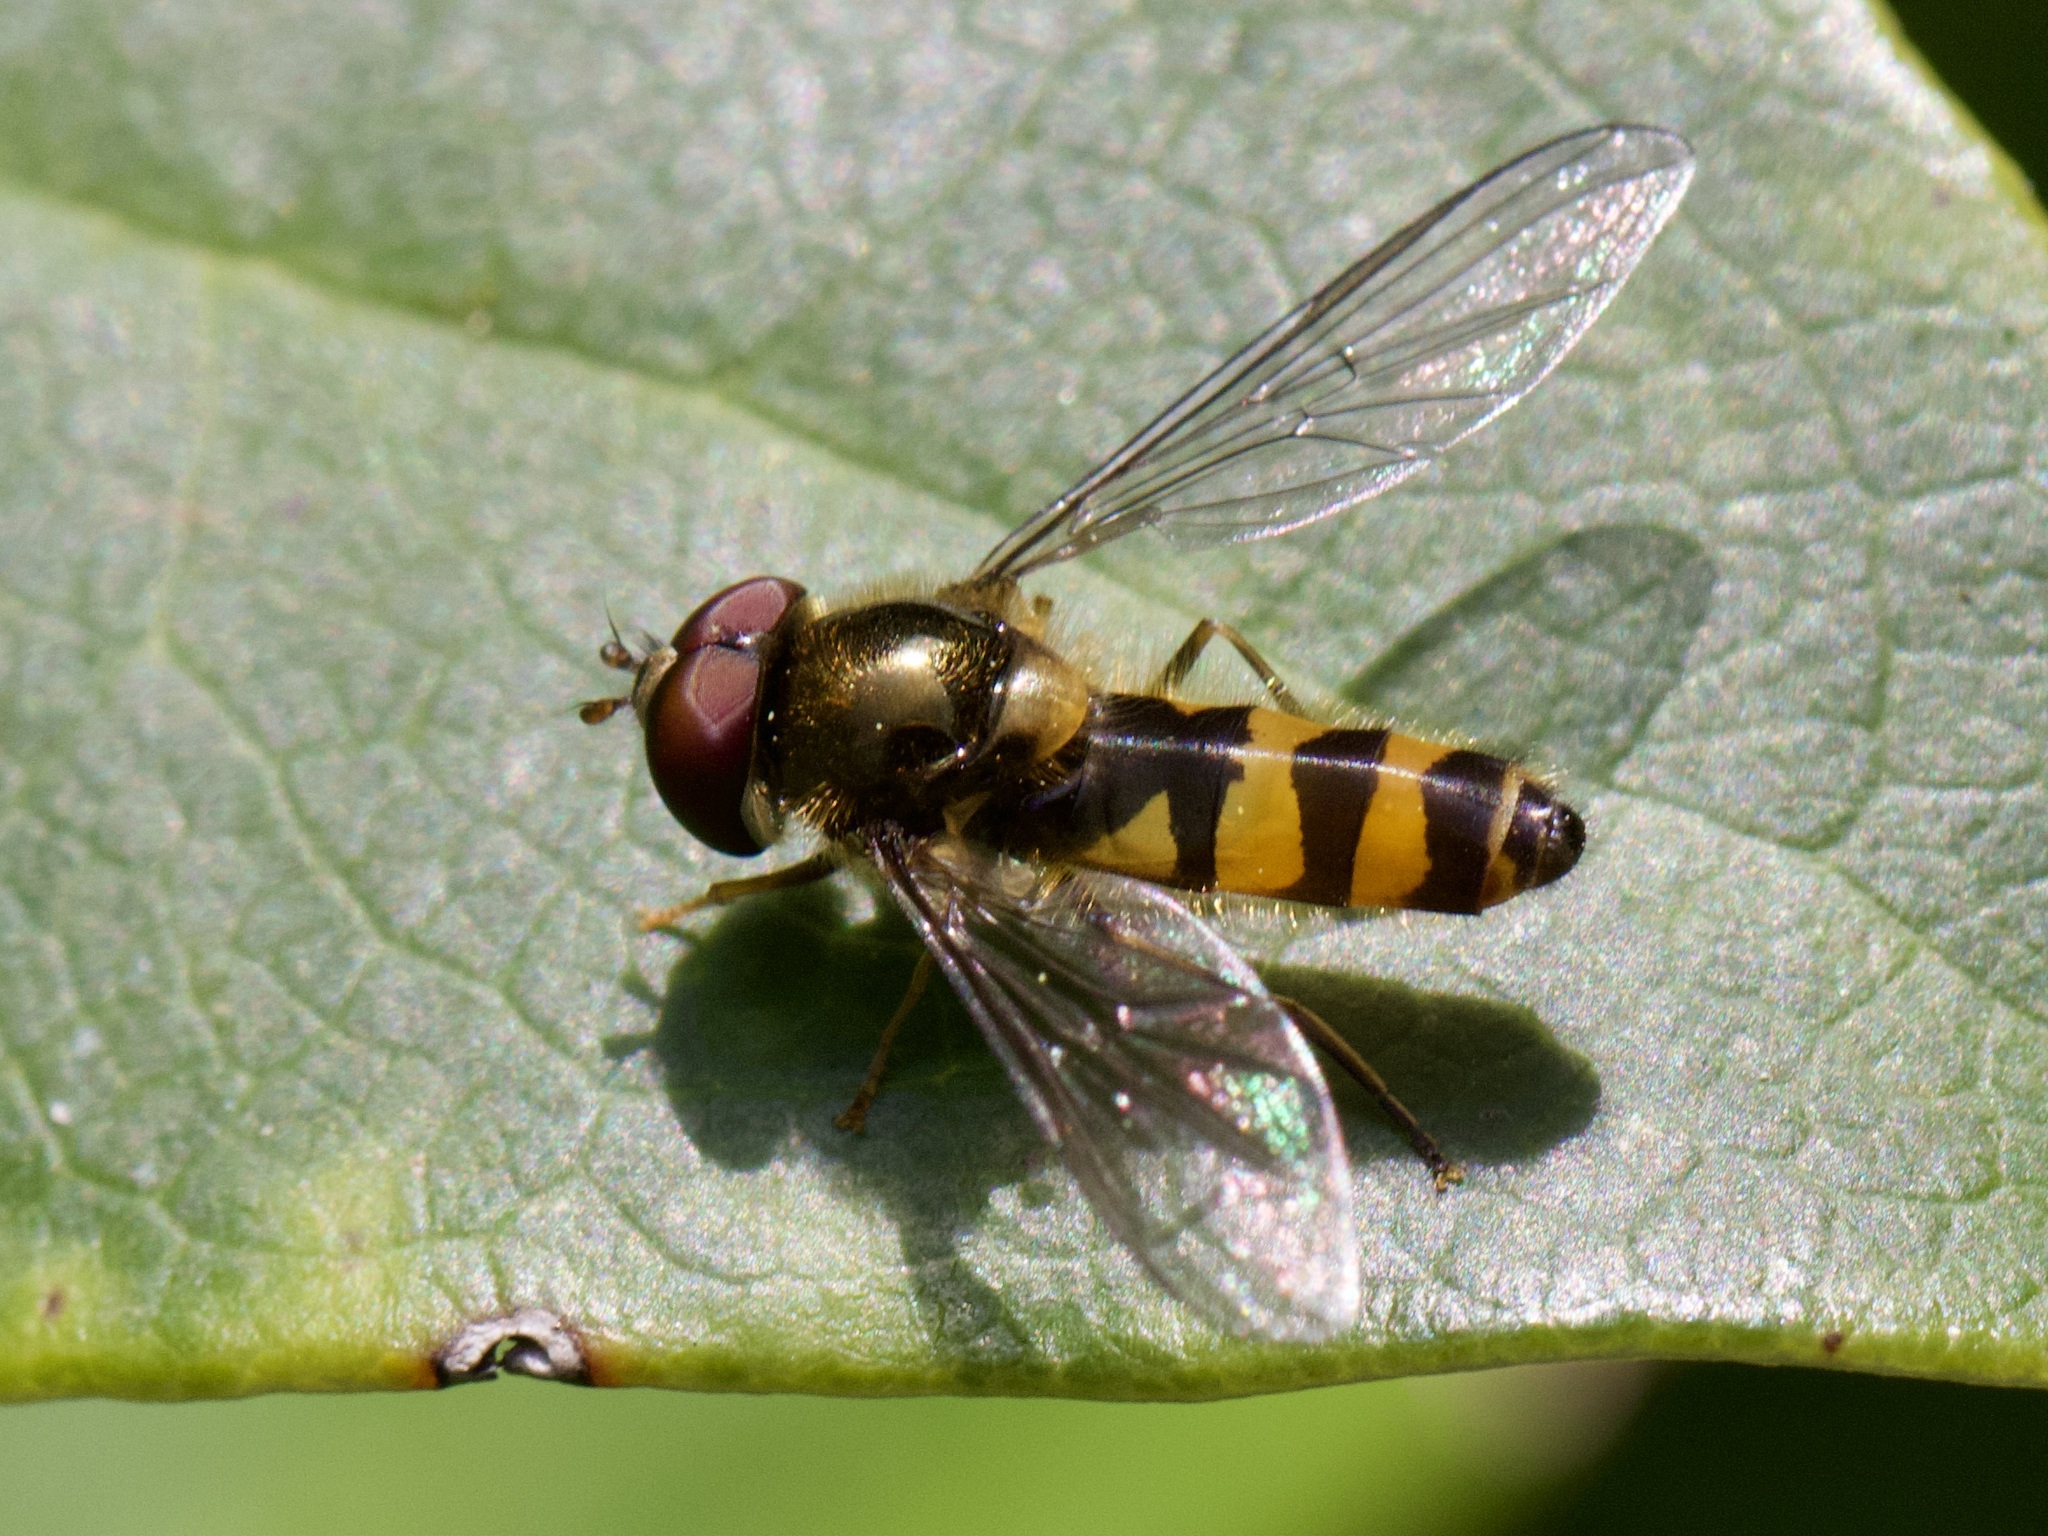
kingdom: Animalia
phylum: Arthropoda
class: Insecta
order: Diptera
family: Syrphidae
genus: Fagisyrphus
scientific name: Fagisyrphus cincta
